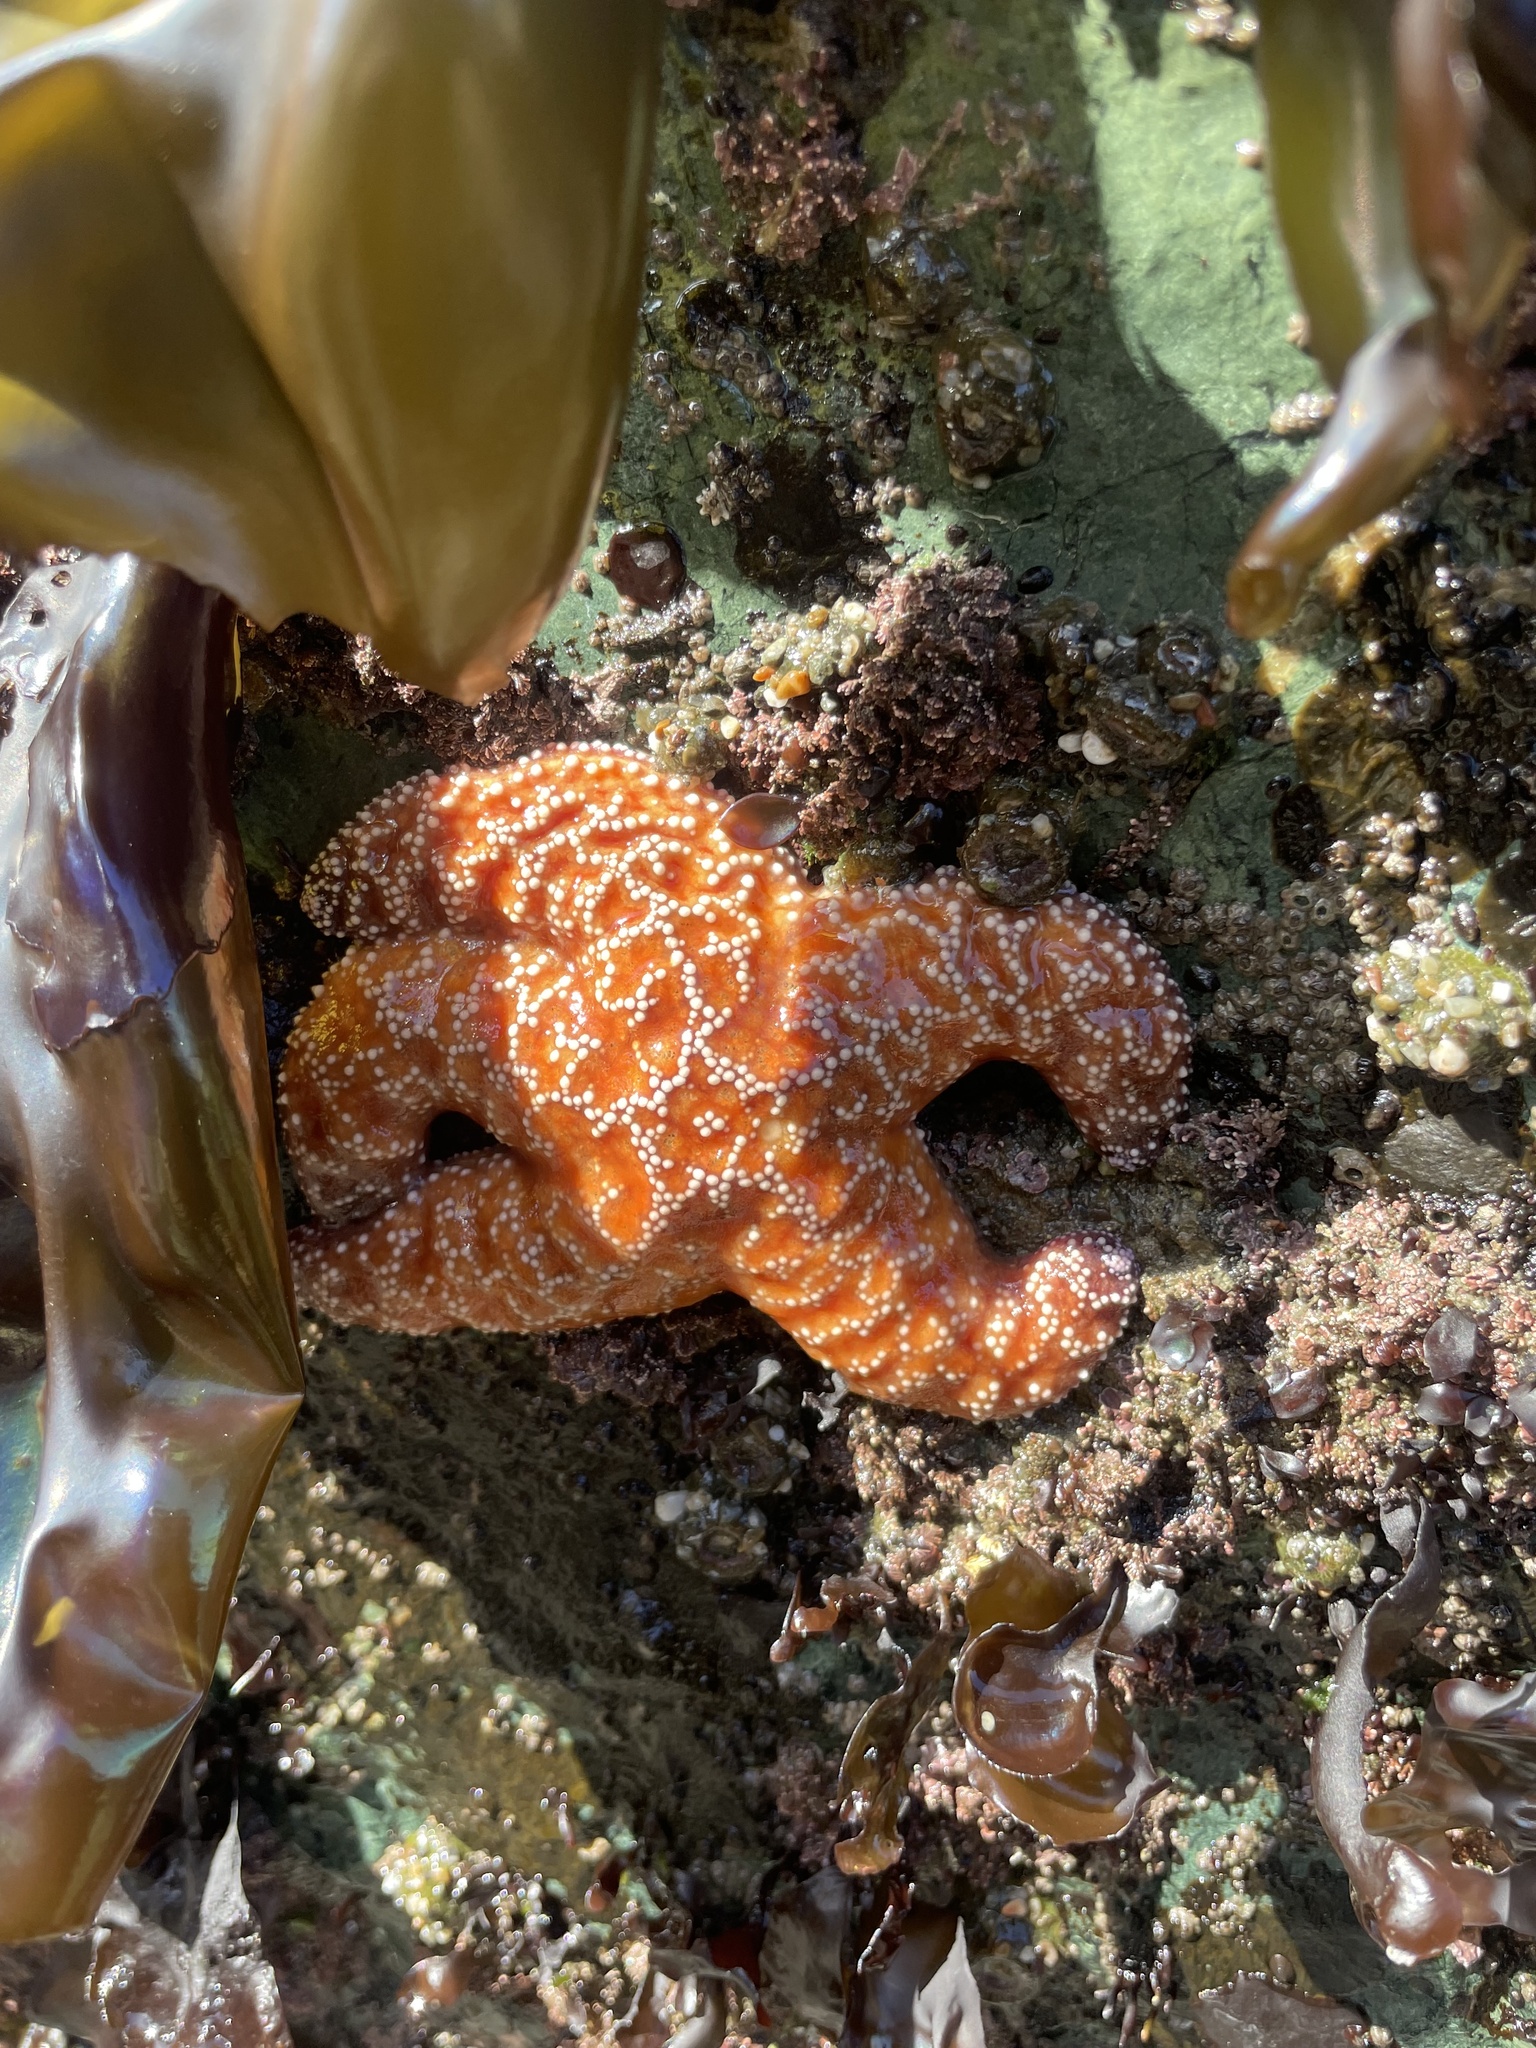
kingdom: Animalia
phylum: Echinodermata
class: Asteroidea
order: Forcipulatida
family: Asteriidae
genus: Pisaster
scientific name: Pisaster ochraceus
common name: Ochre stars
